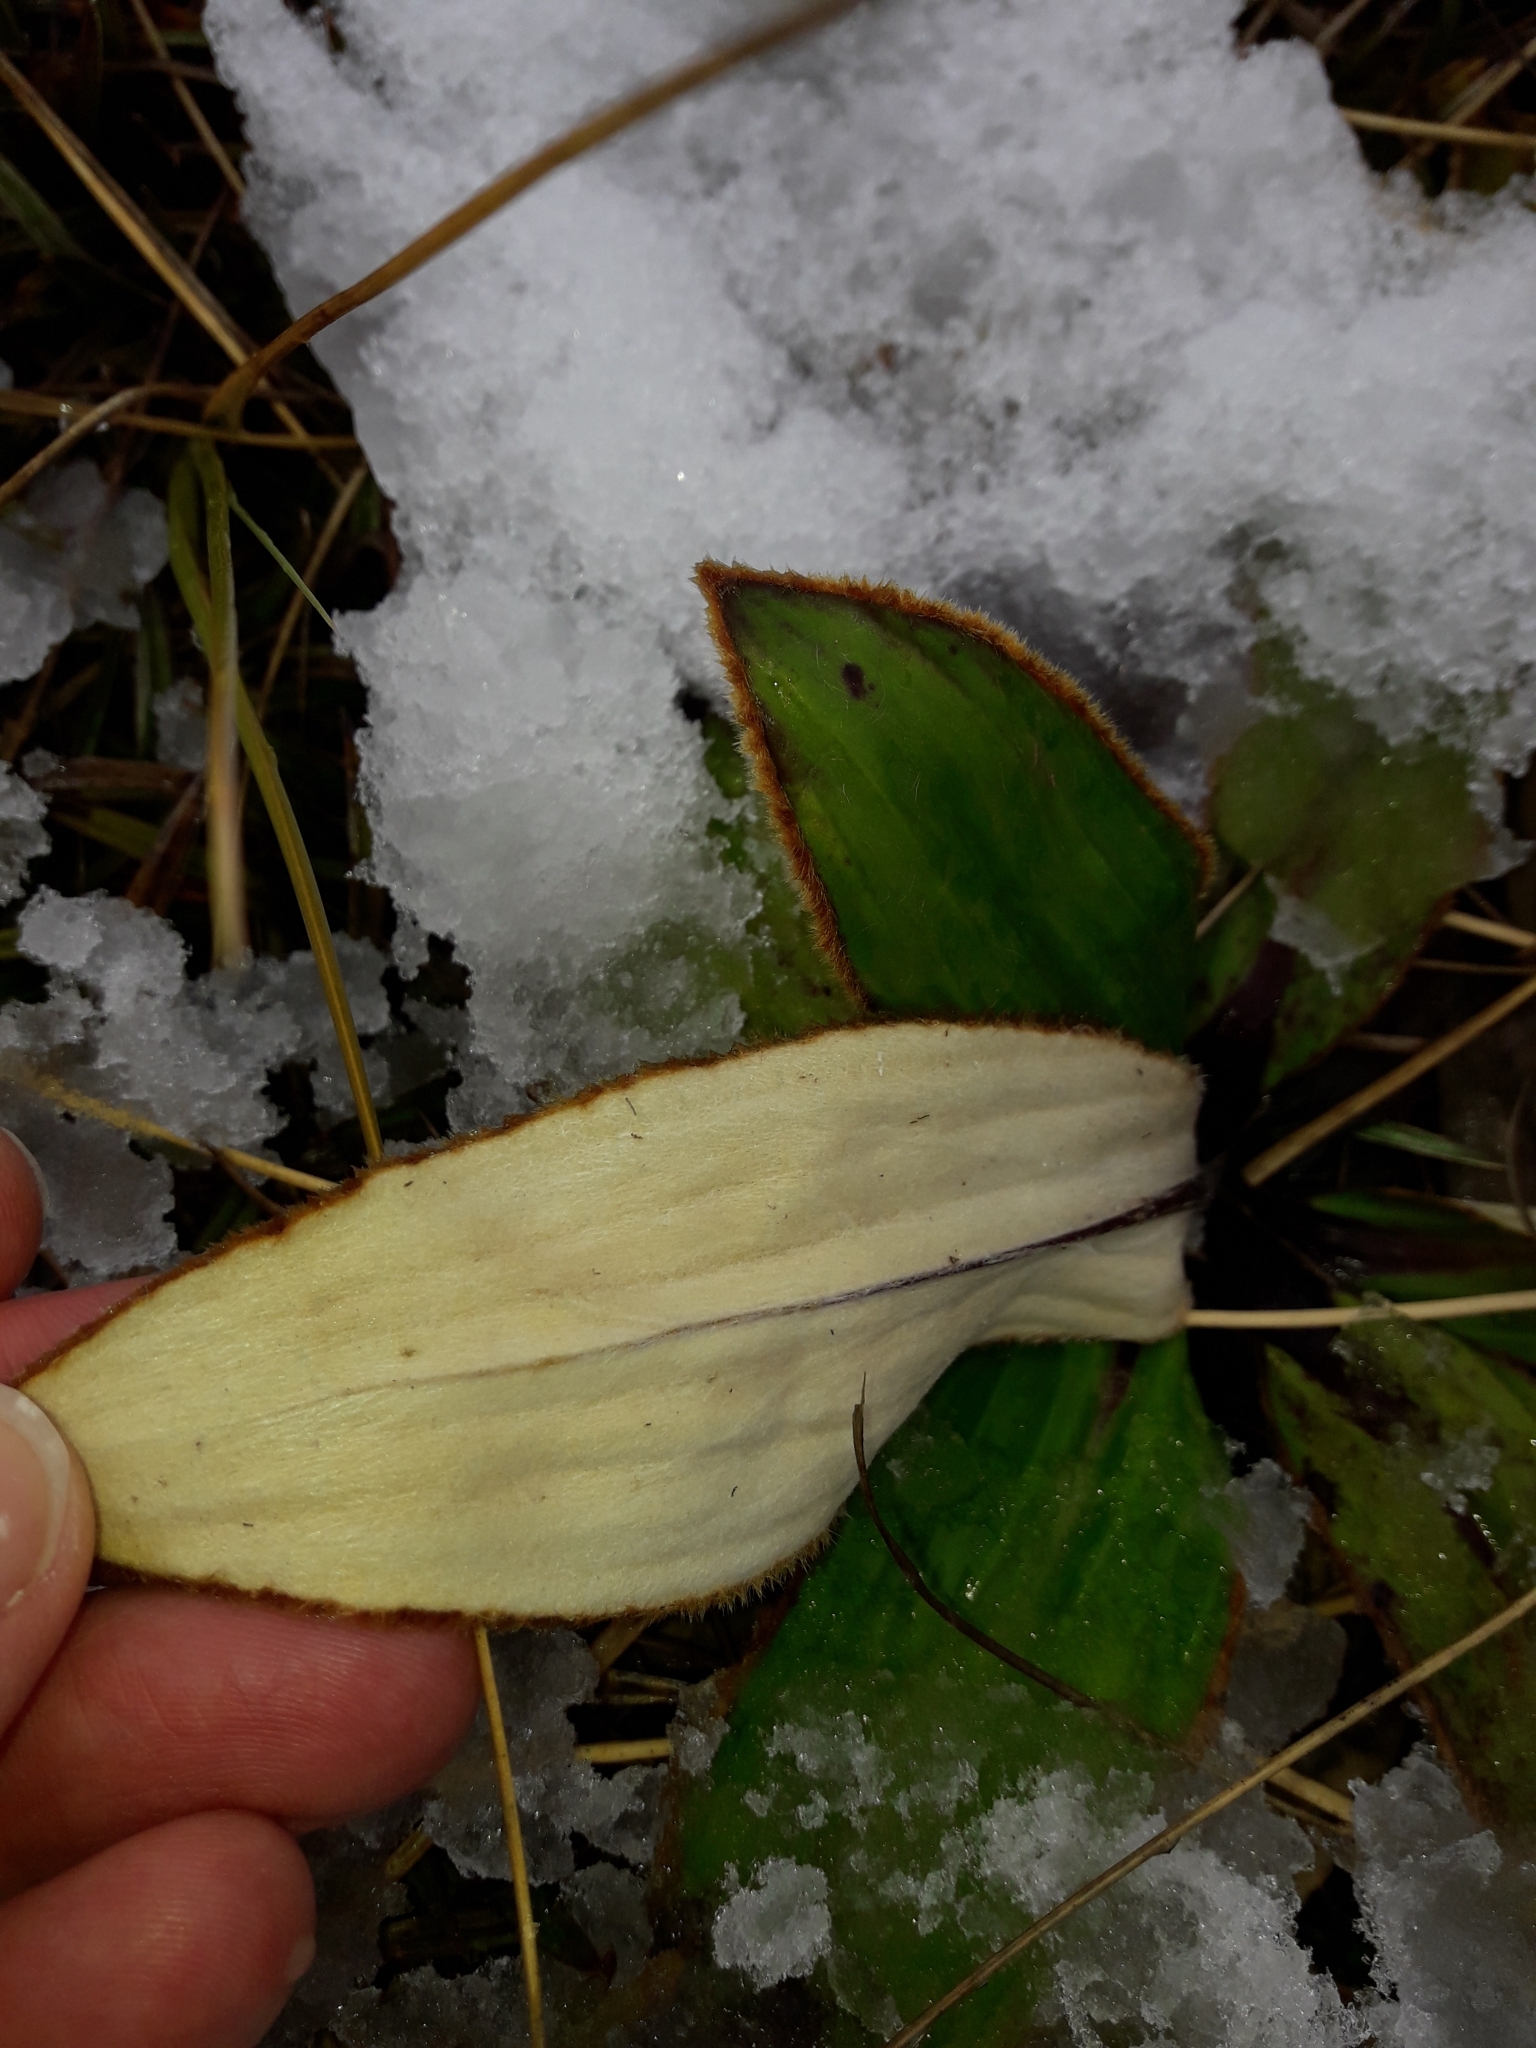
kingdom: Plantae
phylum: Tracheophyta
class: Magnoliopsida
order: Asterales
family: Asteraceae
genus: Celmisia
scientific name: Celmisia traversii
